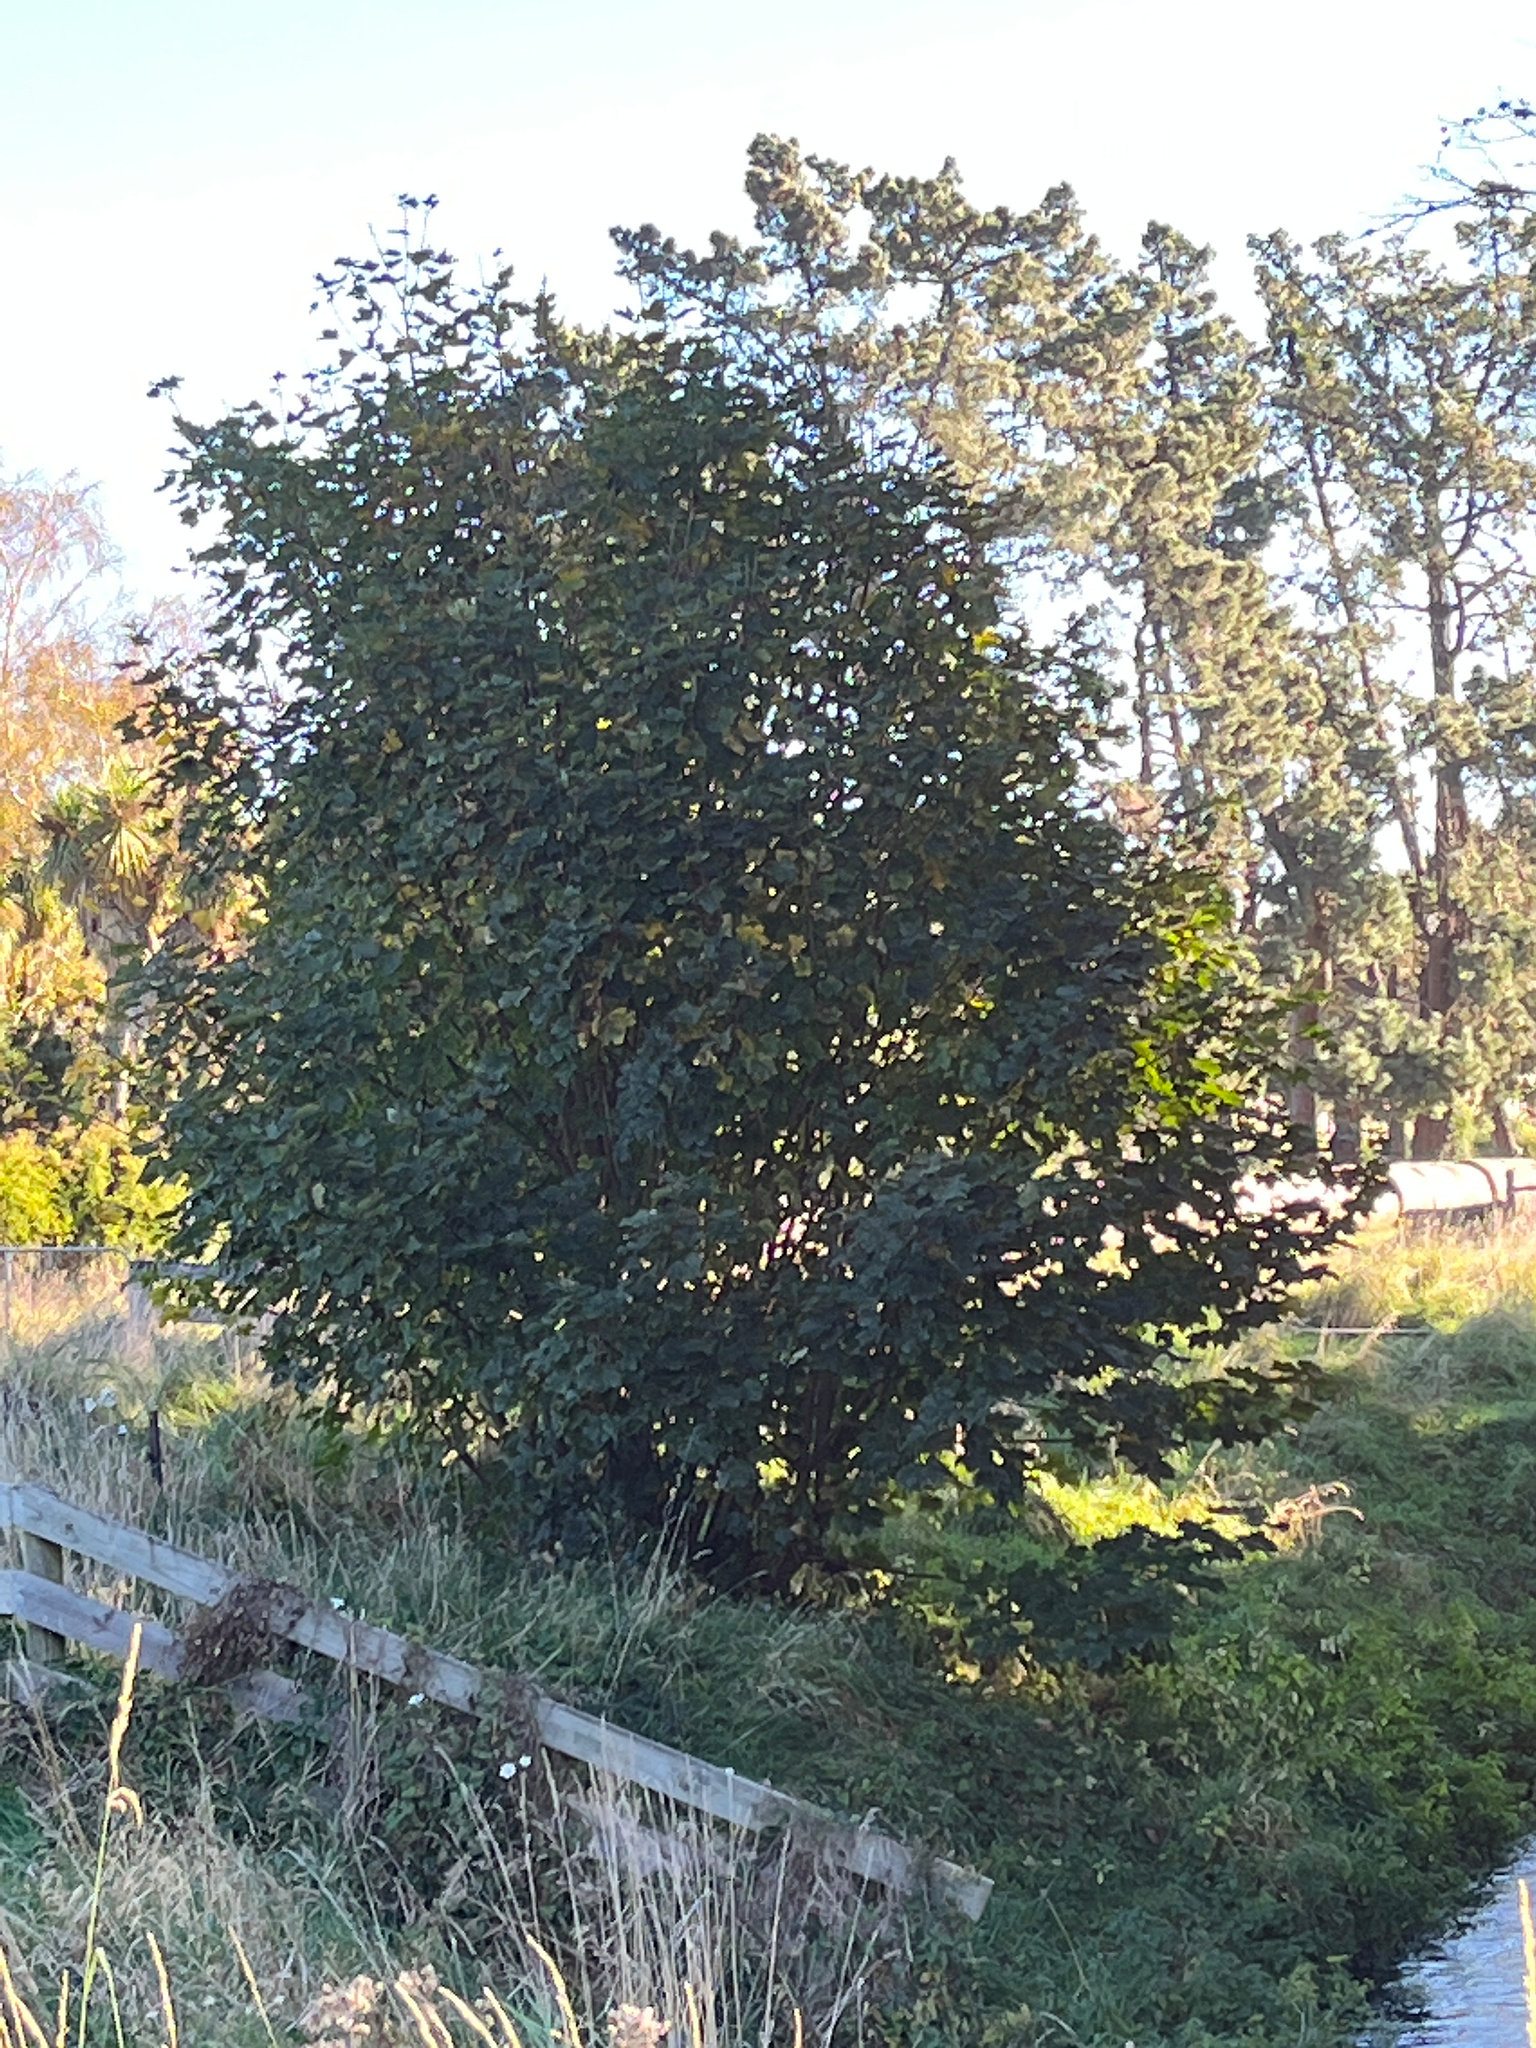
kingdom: Plantae
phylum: Tracheophyta
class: Magnoliopsida
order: Sapindales
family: Sapindaceae
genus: Acer
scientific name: Acer pseudoplatanus
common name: Sycamore
